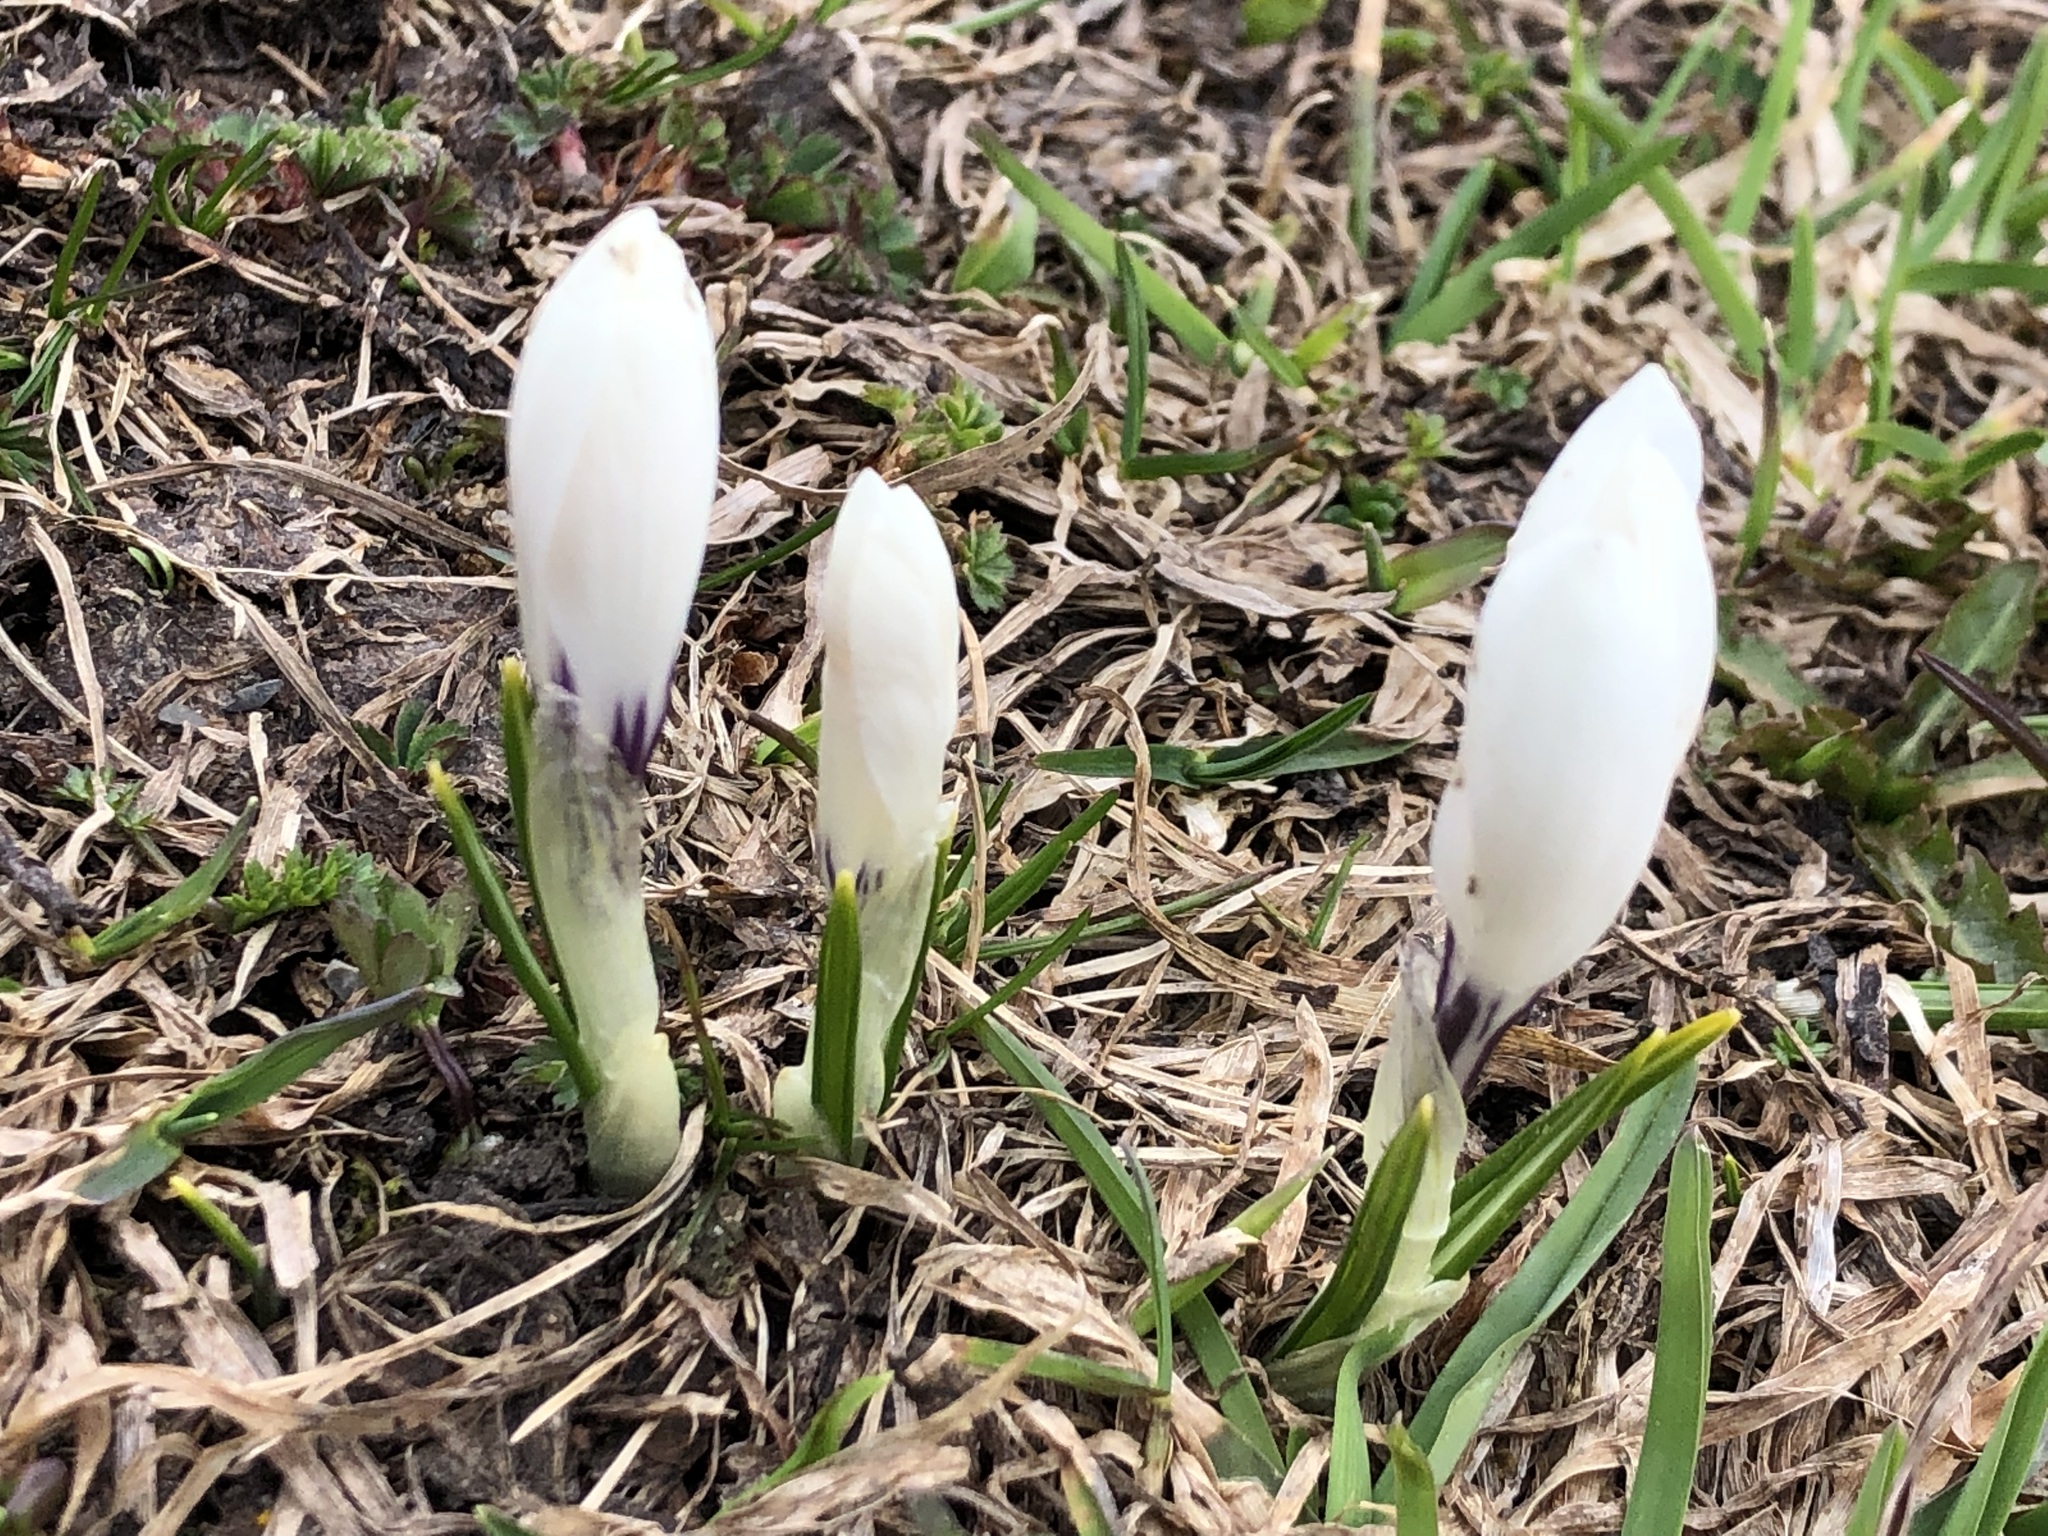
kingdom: Plantae
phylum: Tracheophyta
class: Liliopsida
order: Asparagales
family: Iridaceae
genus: Crocus
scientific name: Crocus vernus
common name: Spring crocus
